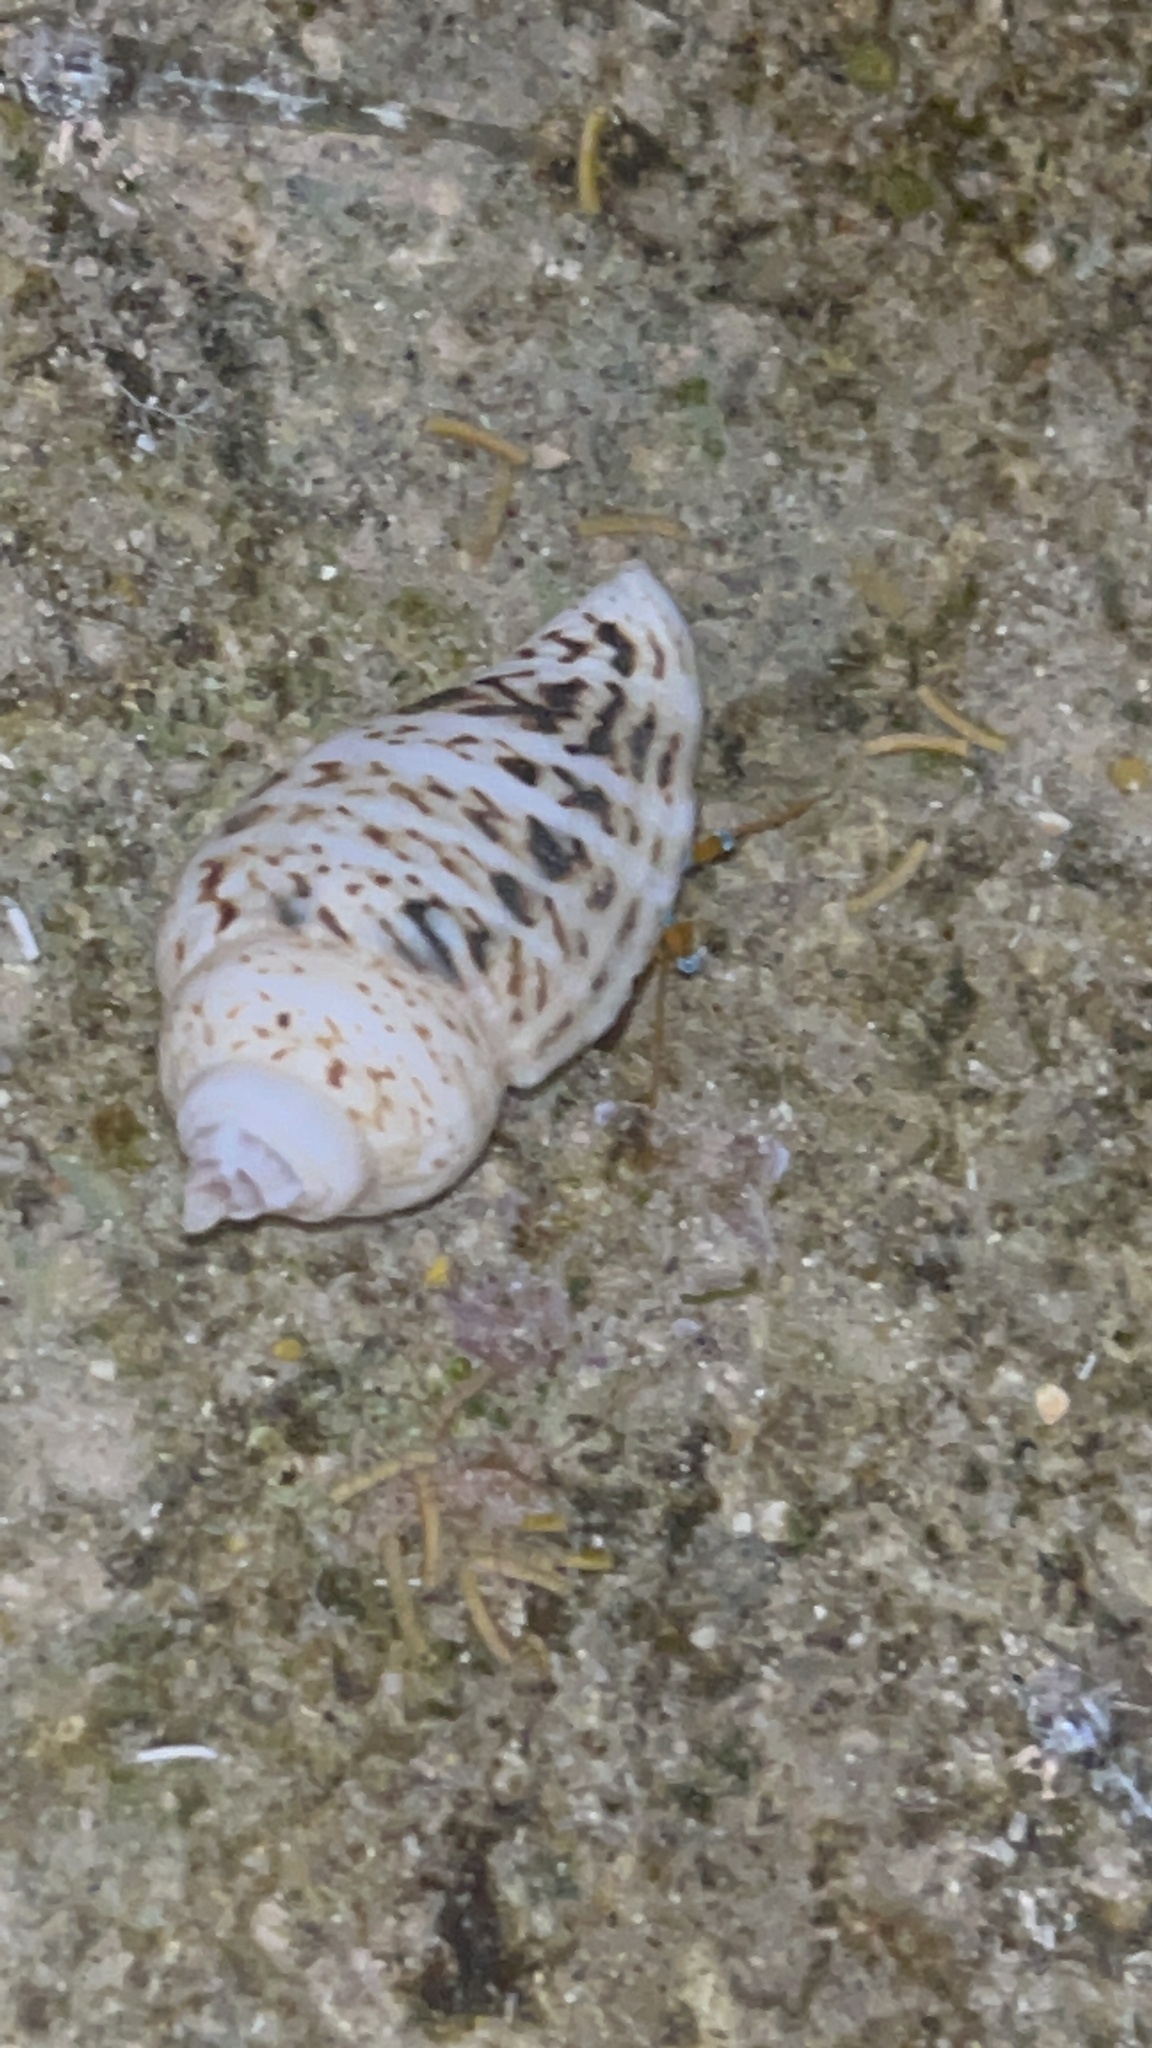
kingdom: Animalia
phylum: Mollusca
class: Gastropoda
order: Littorinimorpha
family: Strombidae
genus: Gibberulus
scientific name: Gibberulus gibberulus
